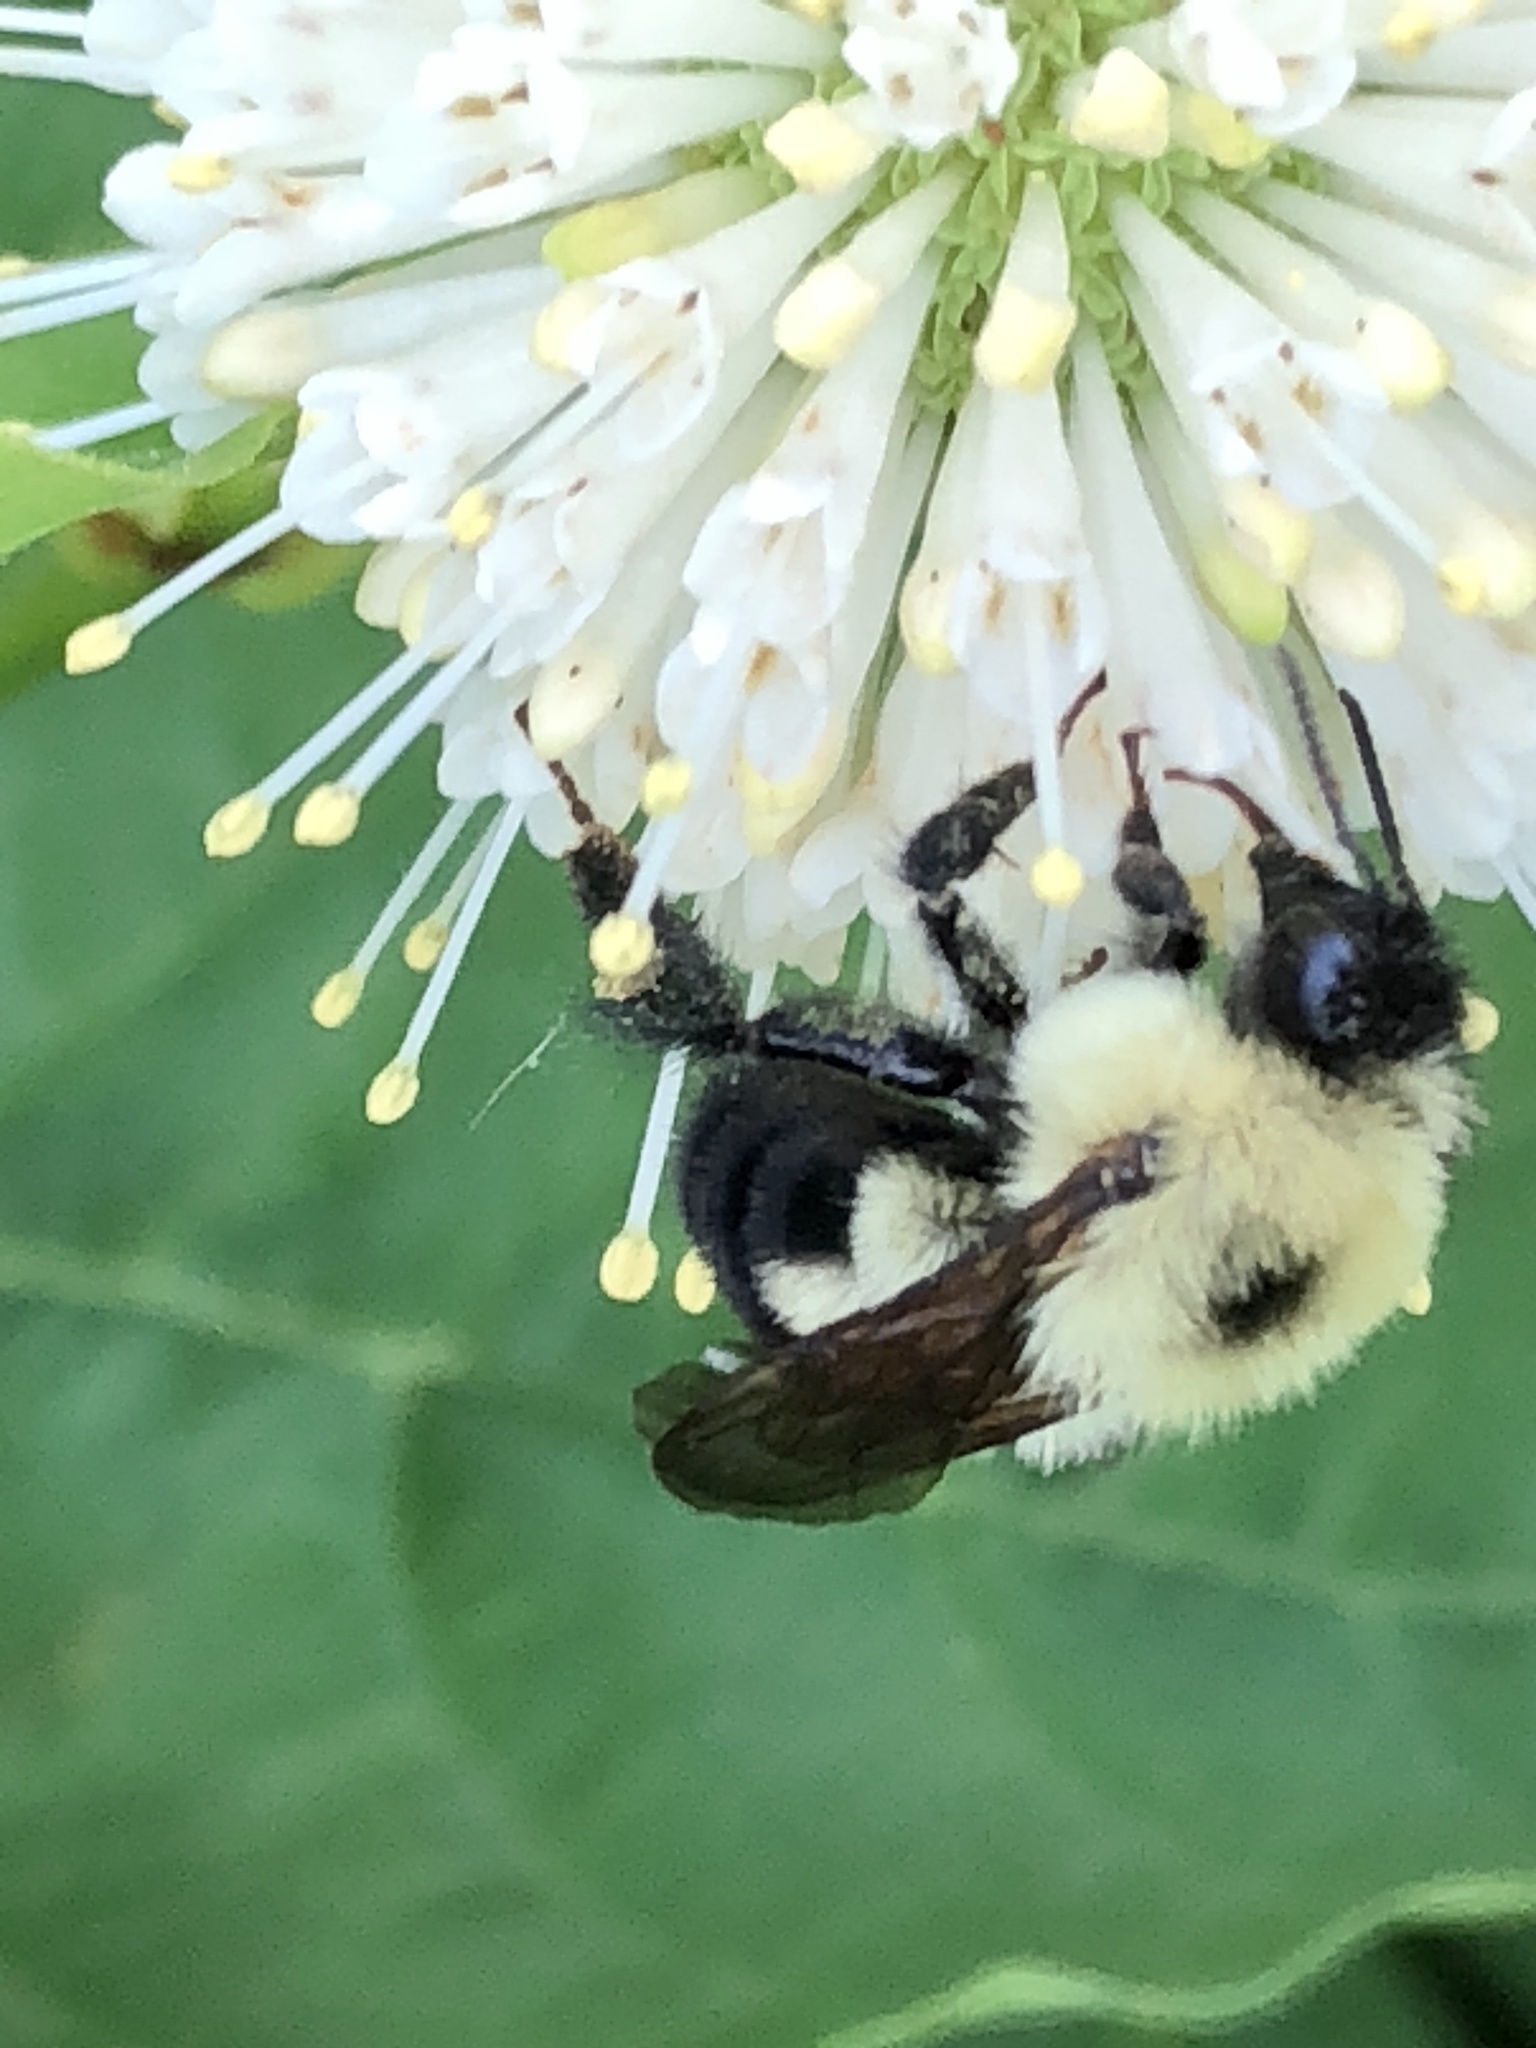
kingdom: Animalia
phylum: Arthropoda
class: Insecta
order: Hymenoptera
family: Apidae
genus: Bombus
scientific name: Bombus bimaculatus
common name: Two-spotted bumble bee
